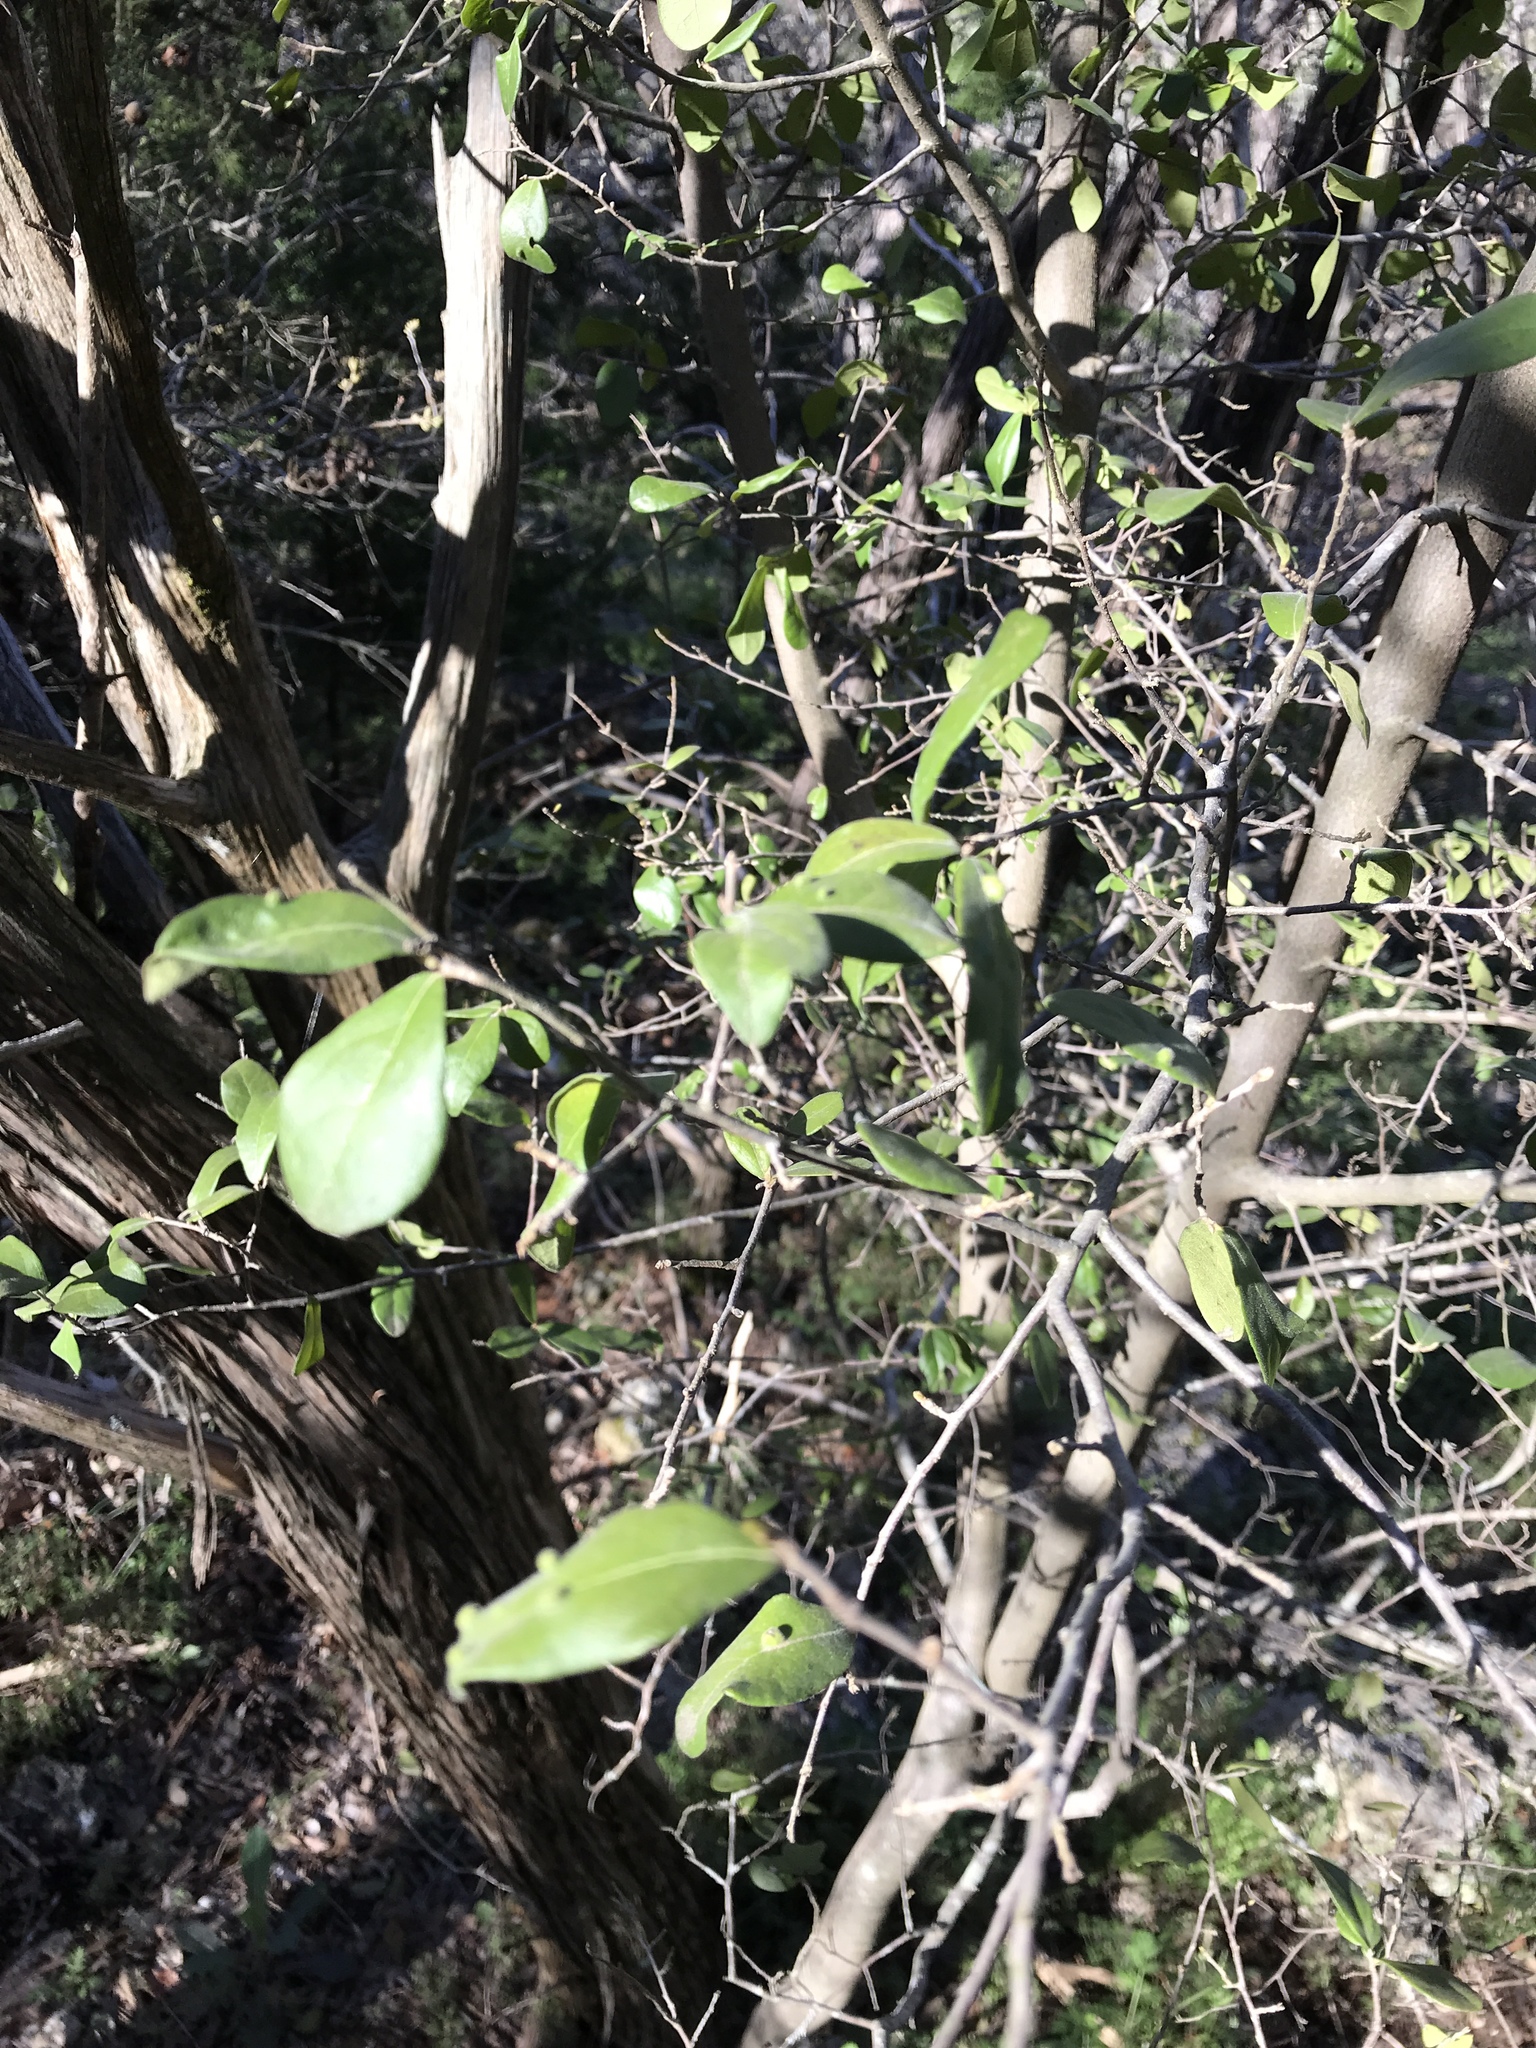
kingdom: Plantae
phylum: Tracheophyta
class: Magnoliopsida
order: Ericales
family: Ebenaceae
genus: Diospyros
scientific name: Diospyros texana
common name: Texas persimmon
